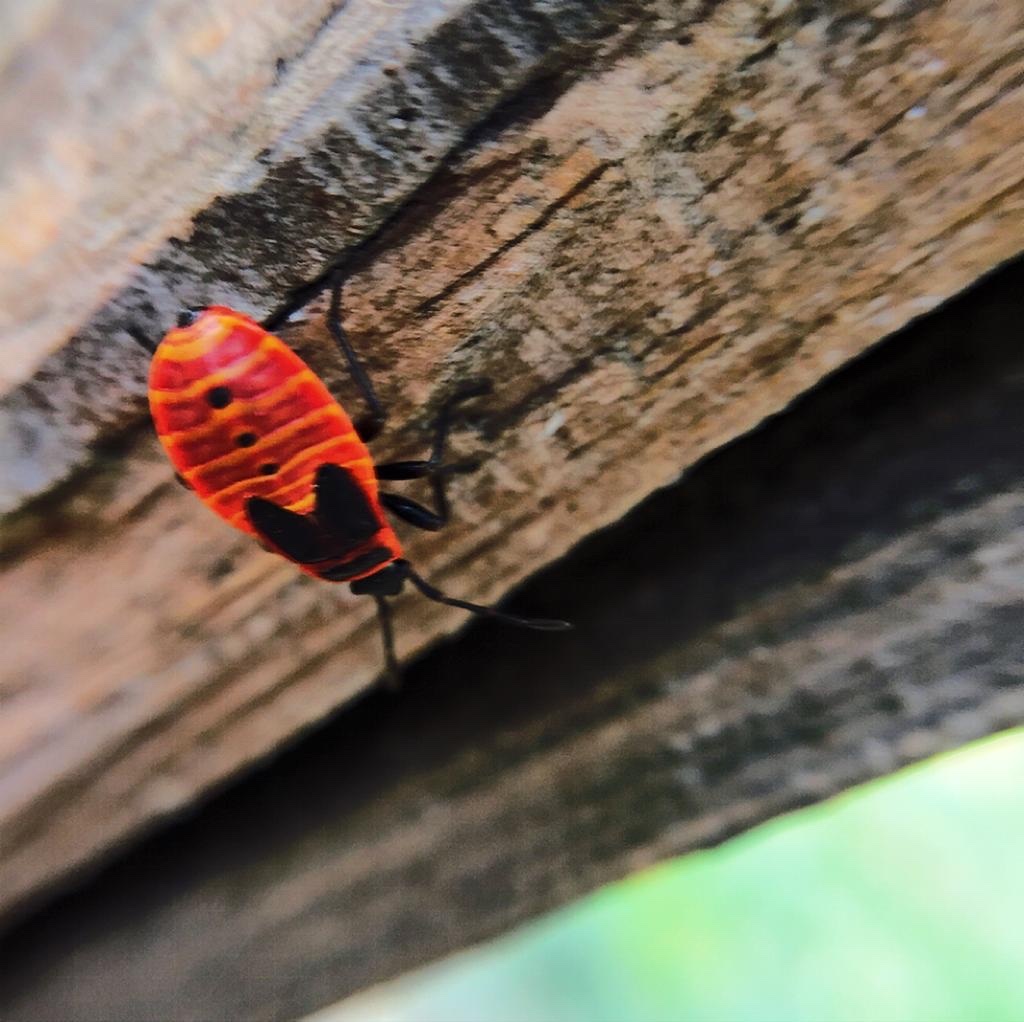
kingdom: Animalia
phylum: Arthropoda
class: Insecta
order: Hemiptera
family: Pyrrhocoridae
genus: Pyrrhocoris
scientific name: Pyrrhocoris apterus
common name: Firebug
